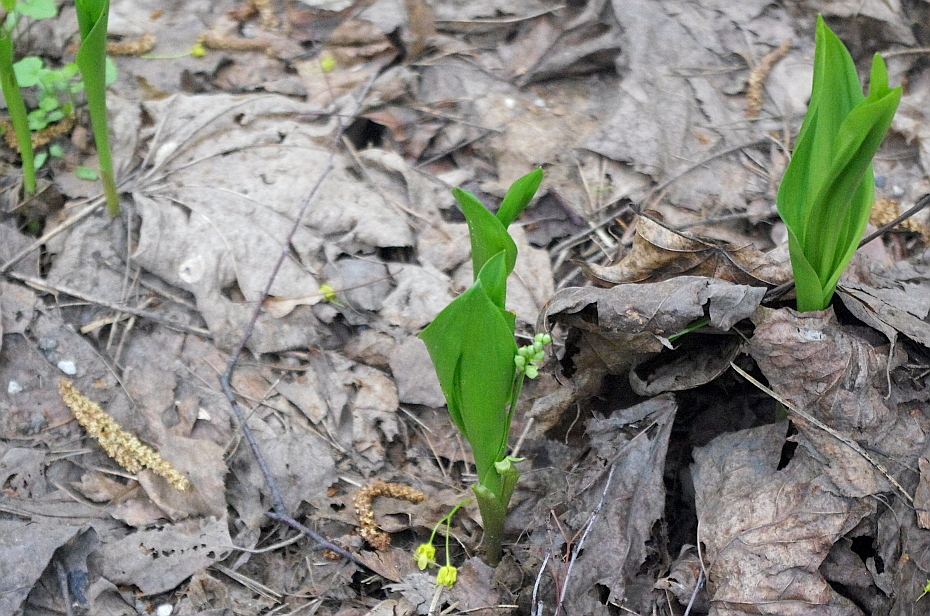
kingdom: Plantae
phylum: Tracheophyta
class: Liliopsida
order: Asparagales
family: Asparagaceae
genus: Convallaria
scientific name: Convallaria majalis
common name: Lily-of-the-valley
